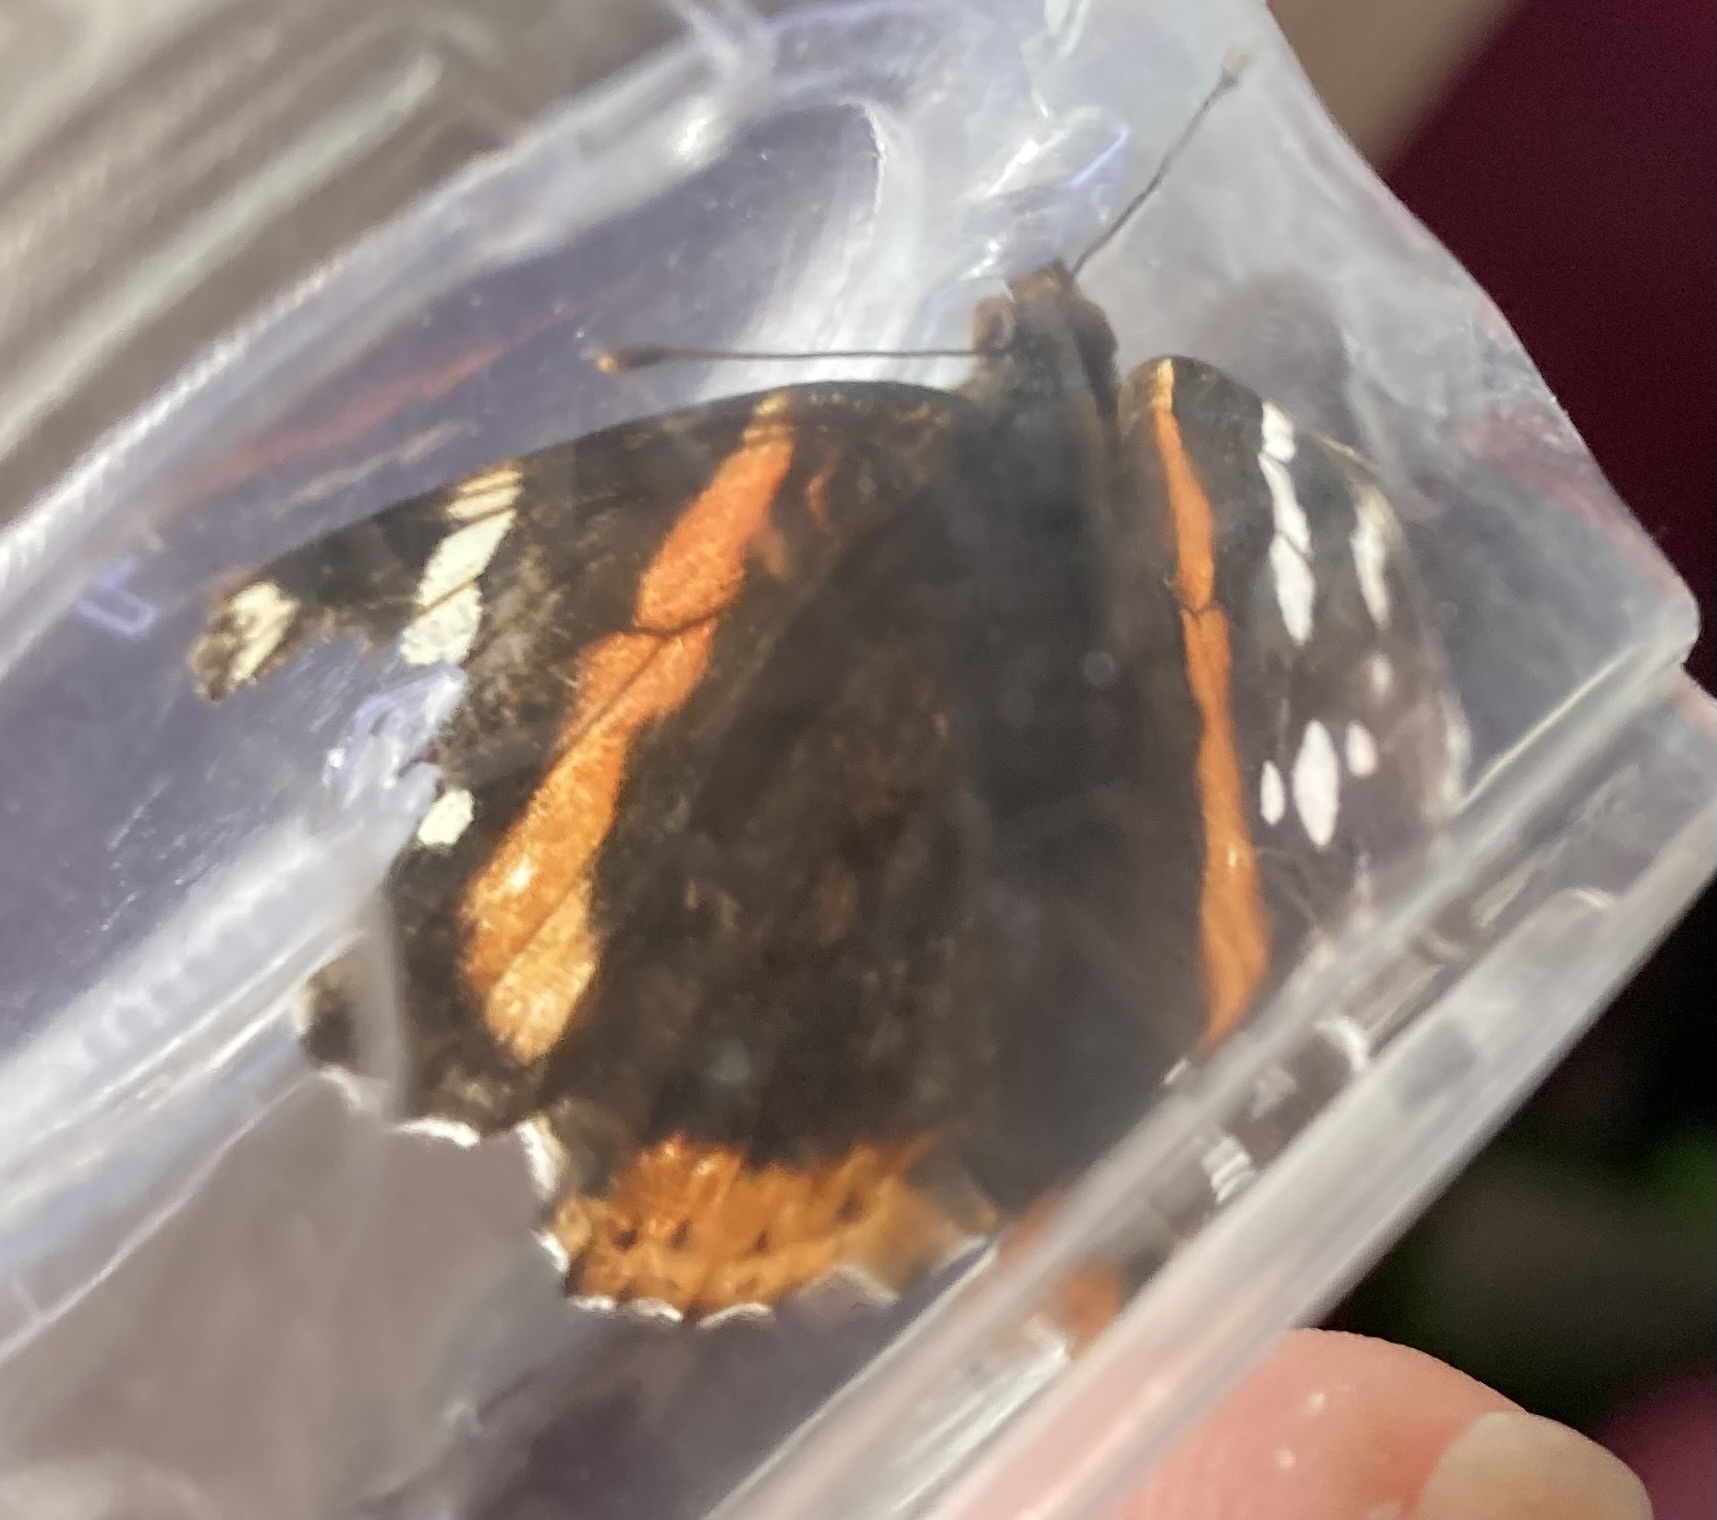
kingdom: Animalia
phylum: Arthropoda
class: Insecta
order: Lepidoptera
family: Nymphalidae
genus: Vanessa
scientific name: Vanessa atalanta
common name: Red admiral
